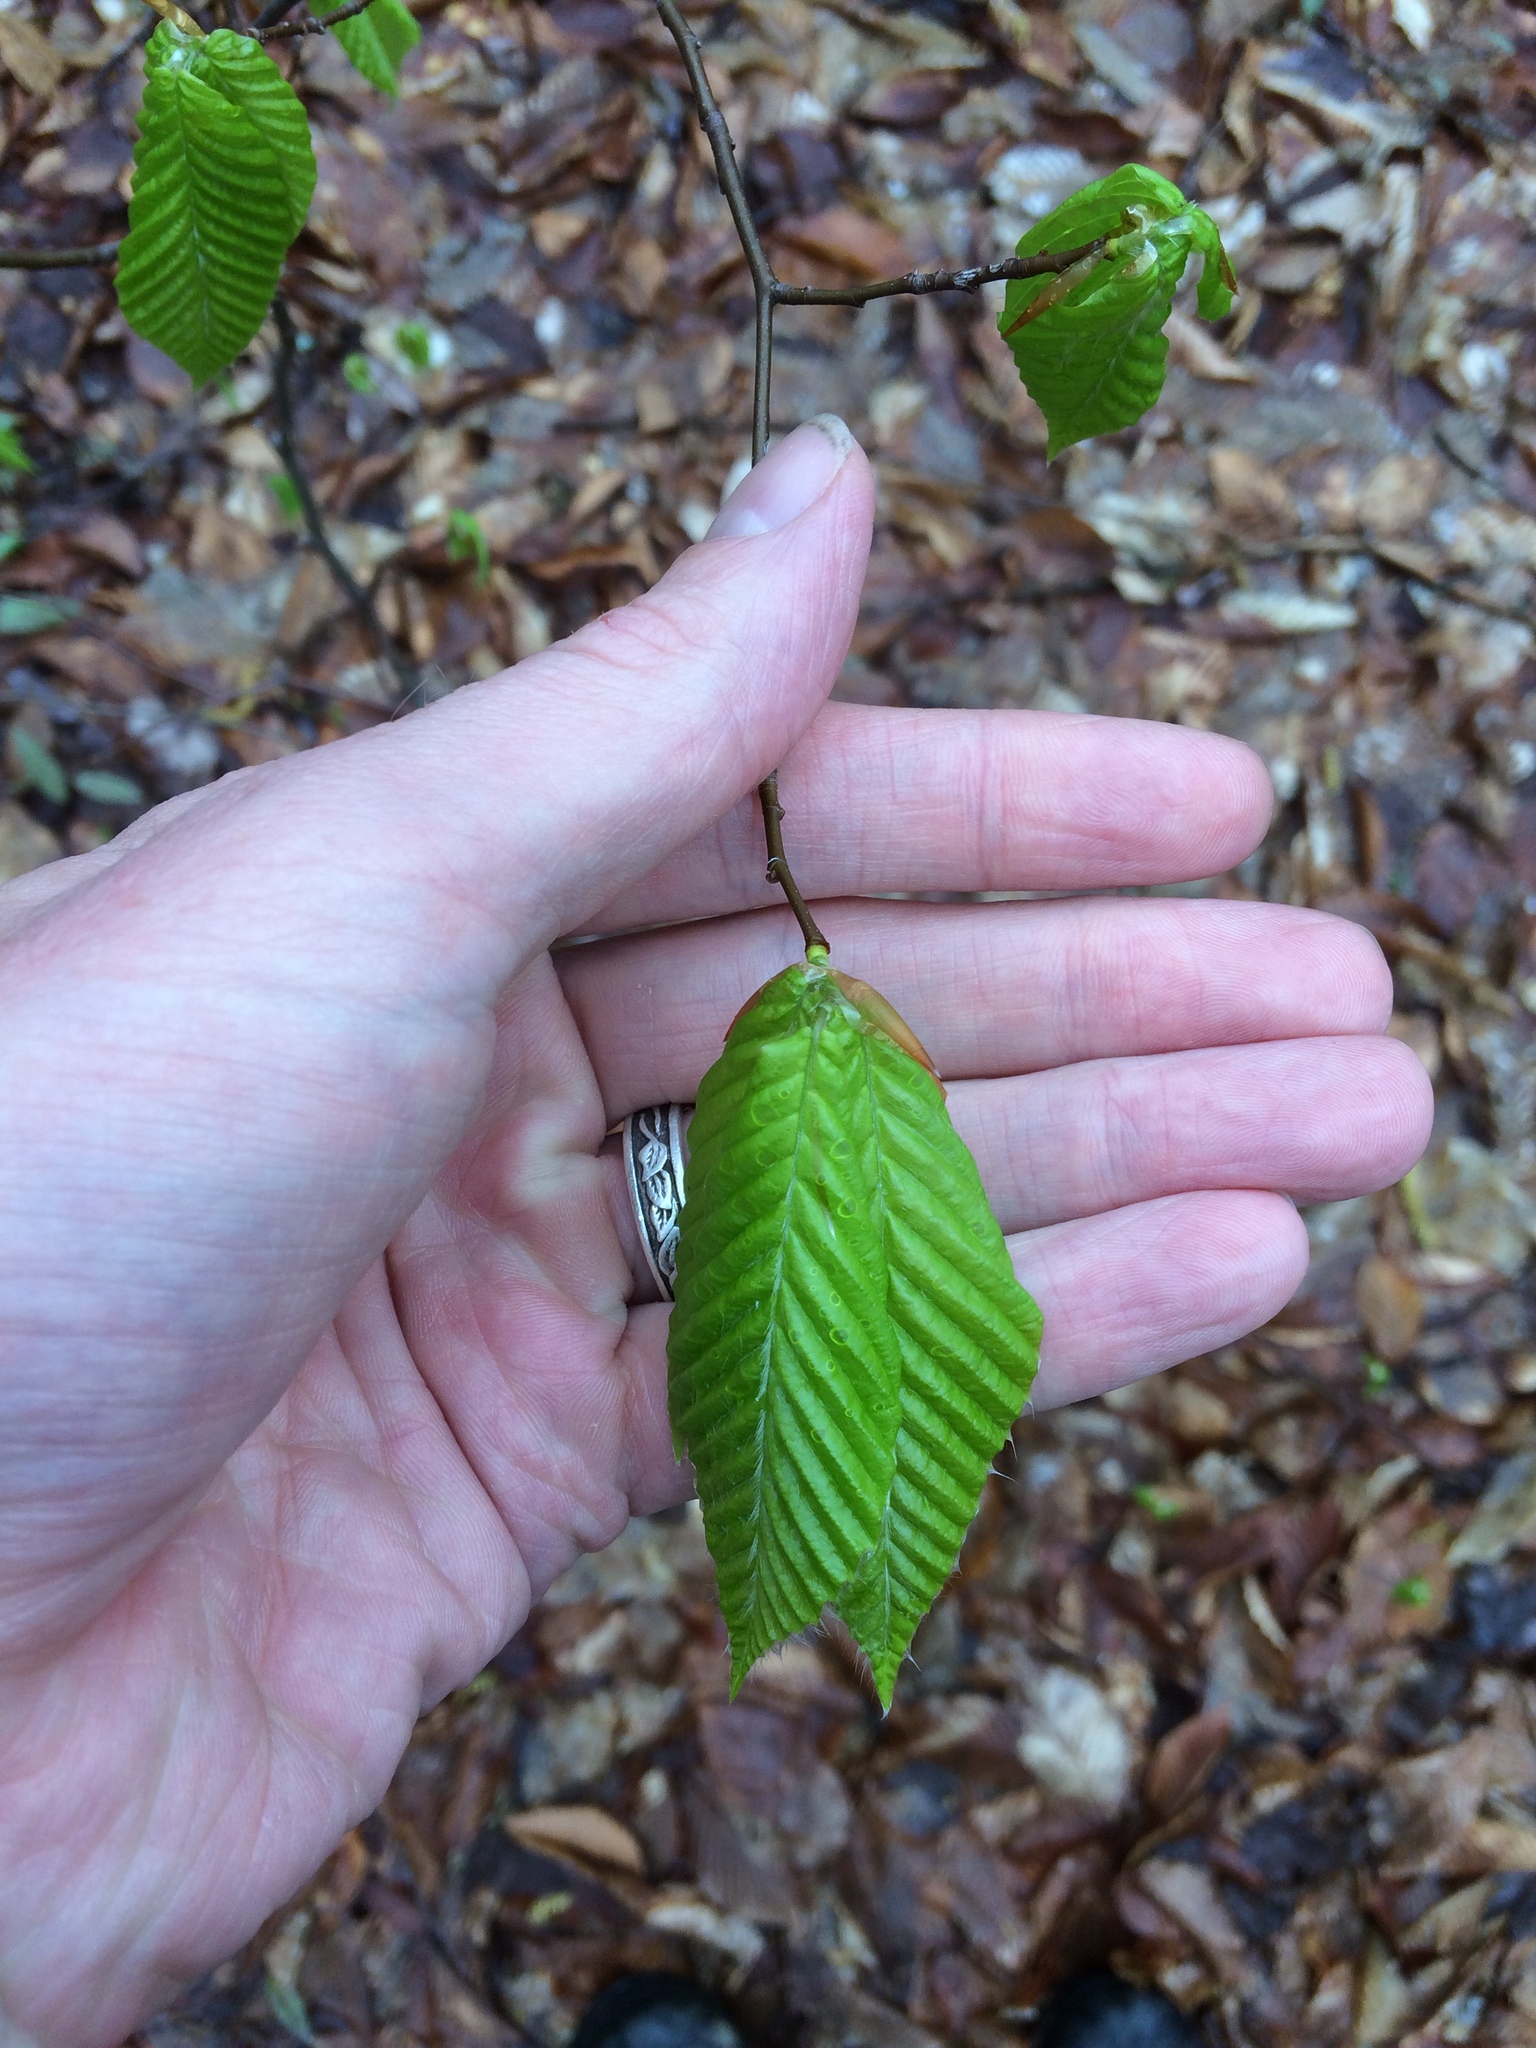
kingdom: Plantae
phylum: Tracheophyta
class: Magnoliopsida
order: Fagales
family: Fagaceae
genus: Fagus
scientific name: Fagus grandifolia
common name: American beech
